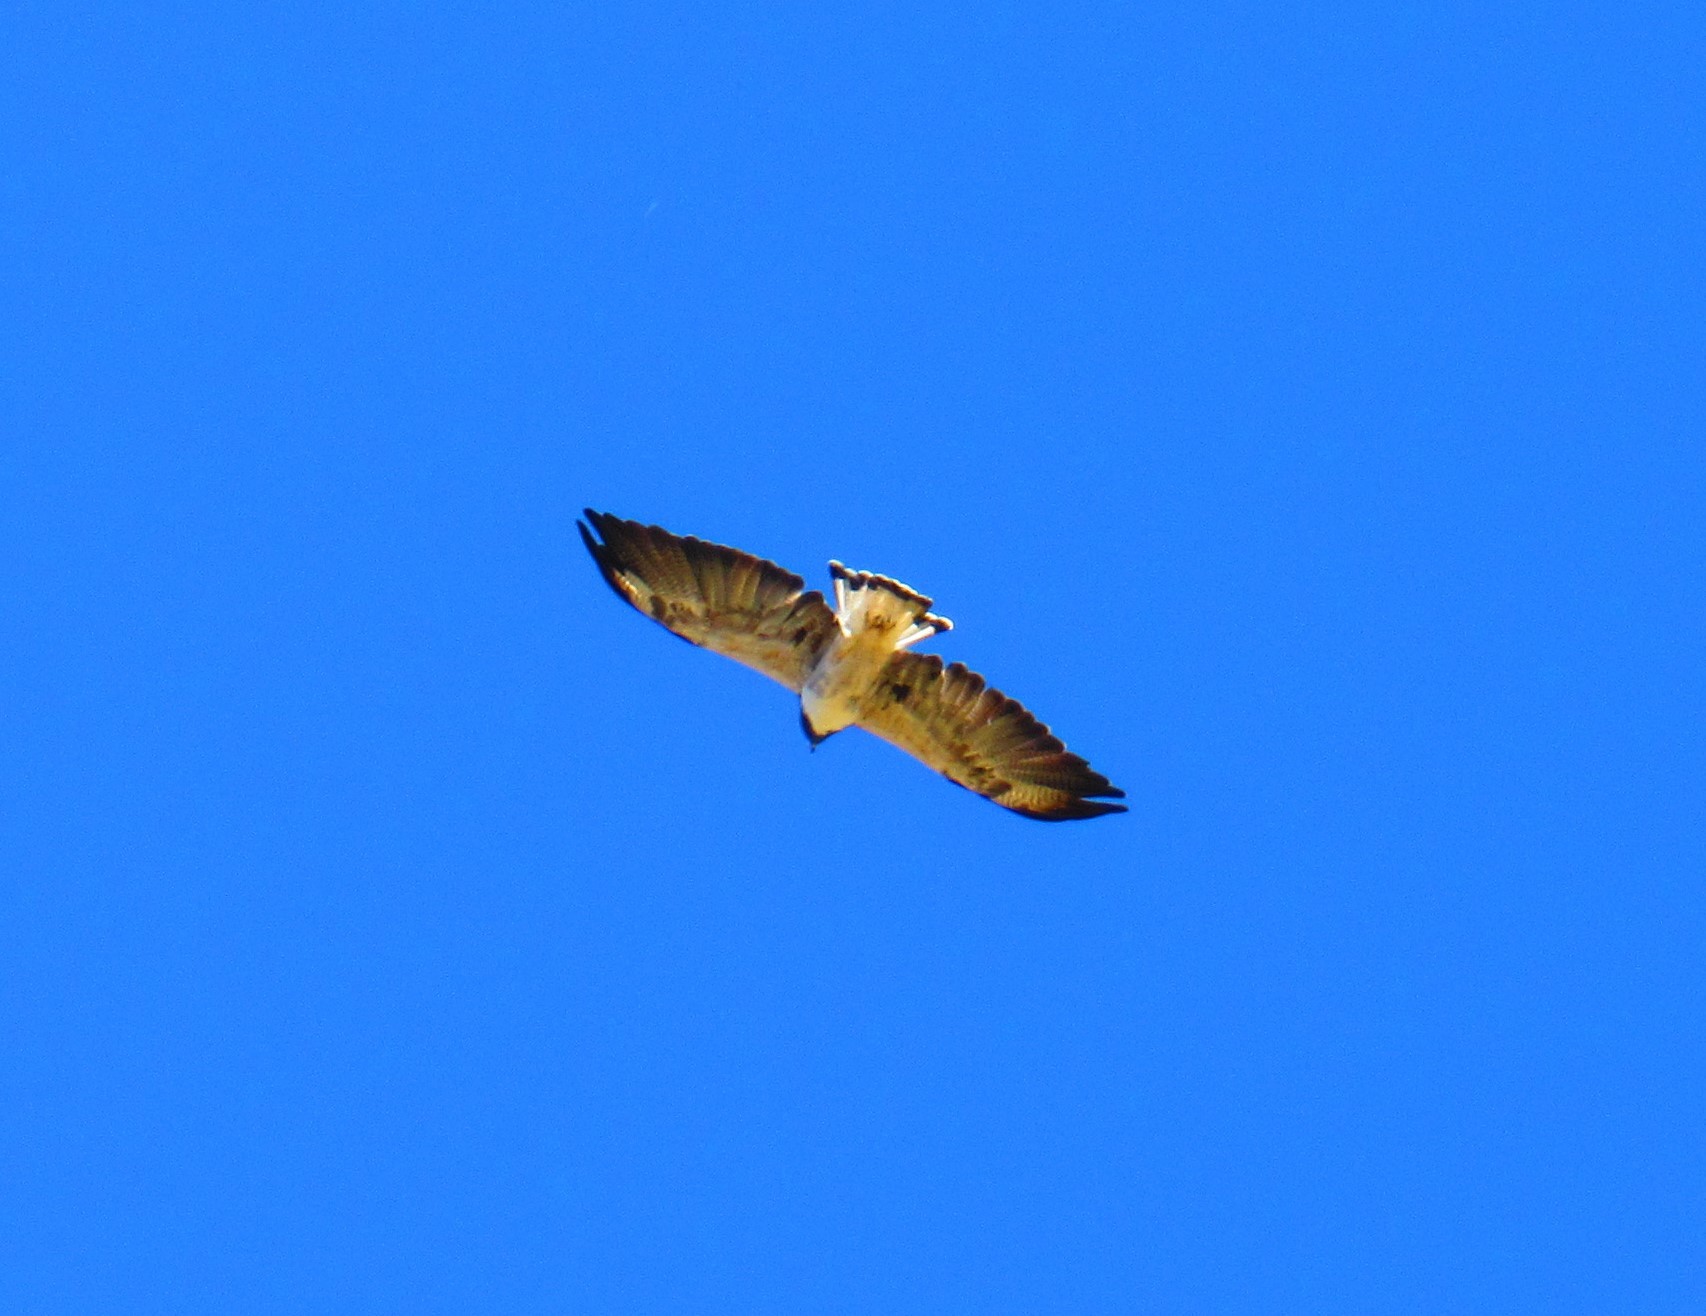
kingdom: Animalia
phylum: Chordata
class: Aves
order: Accipitriformes
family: Accipitridae
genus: Buteo
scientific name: Buteo albicaudatus
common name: White-tailed hawk
